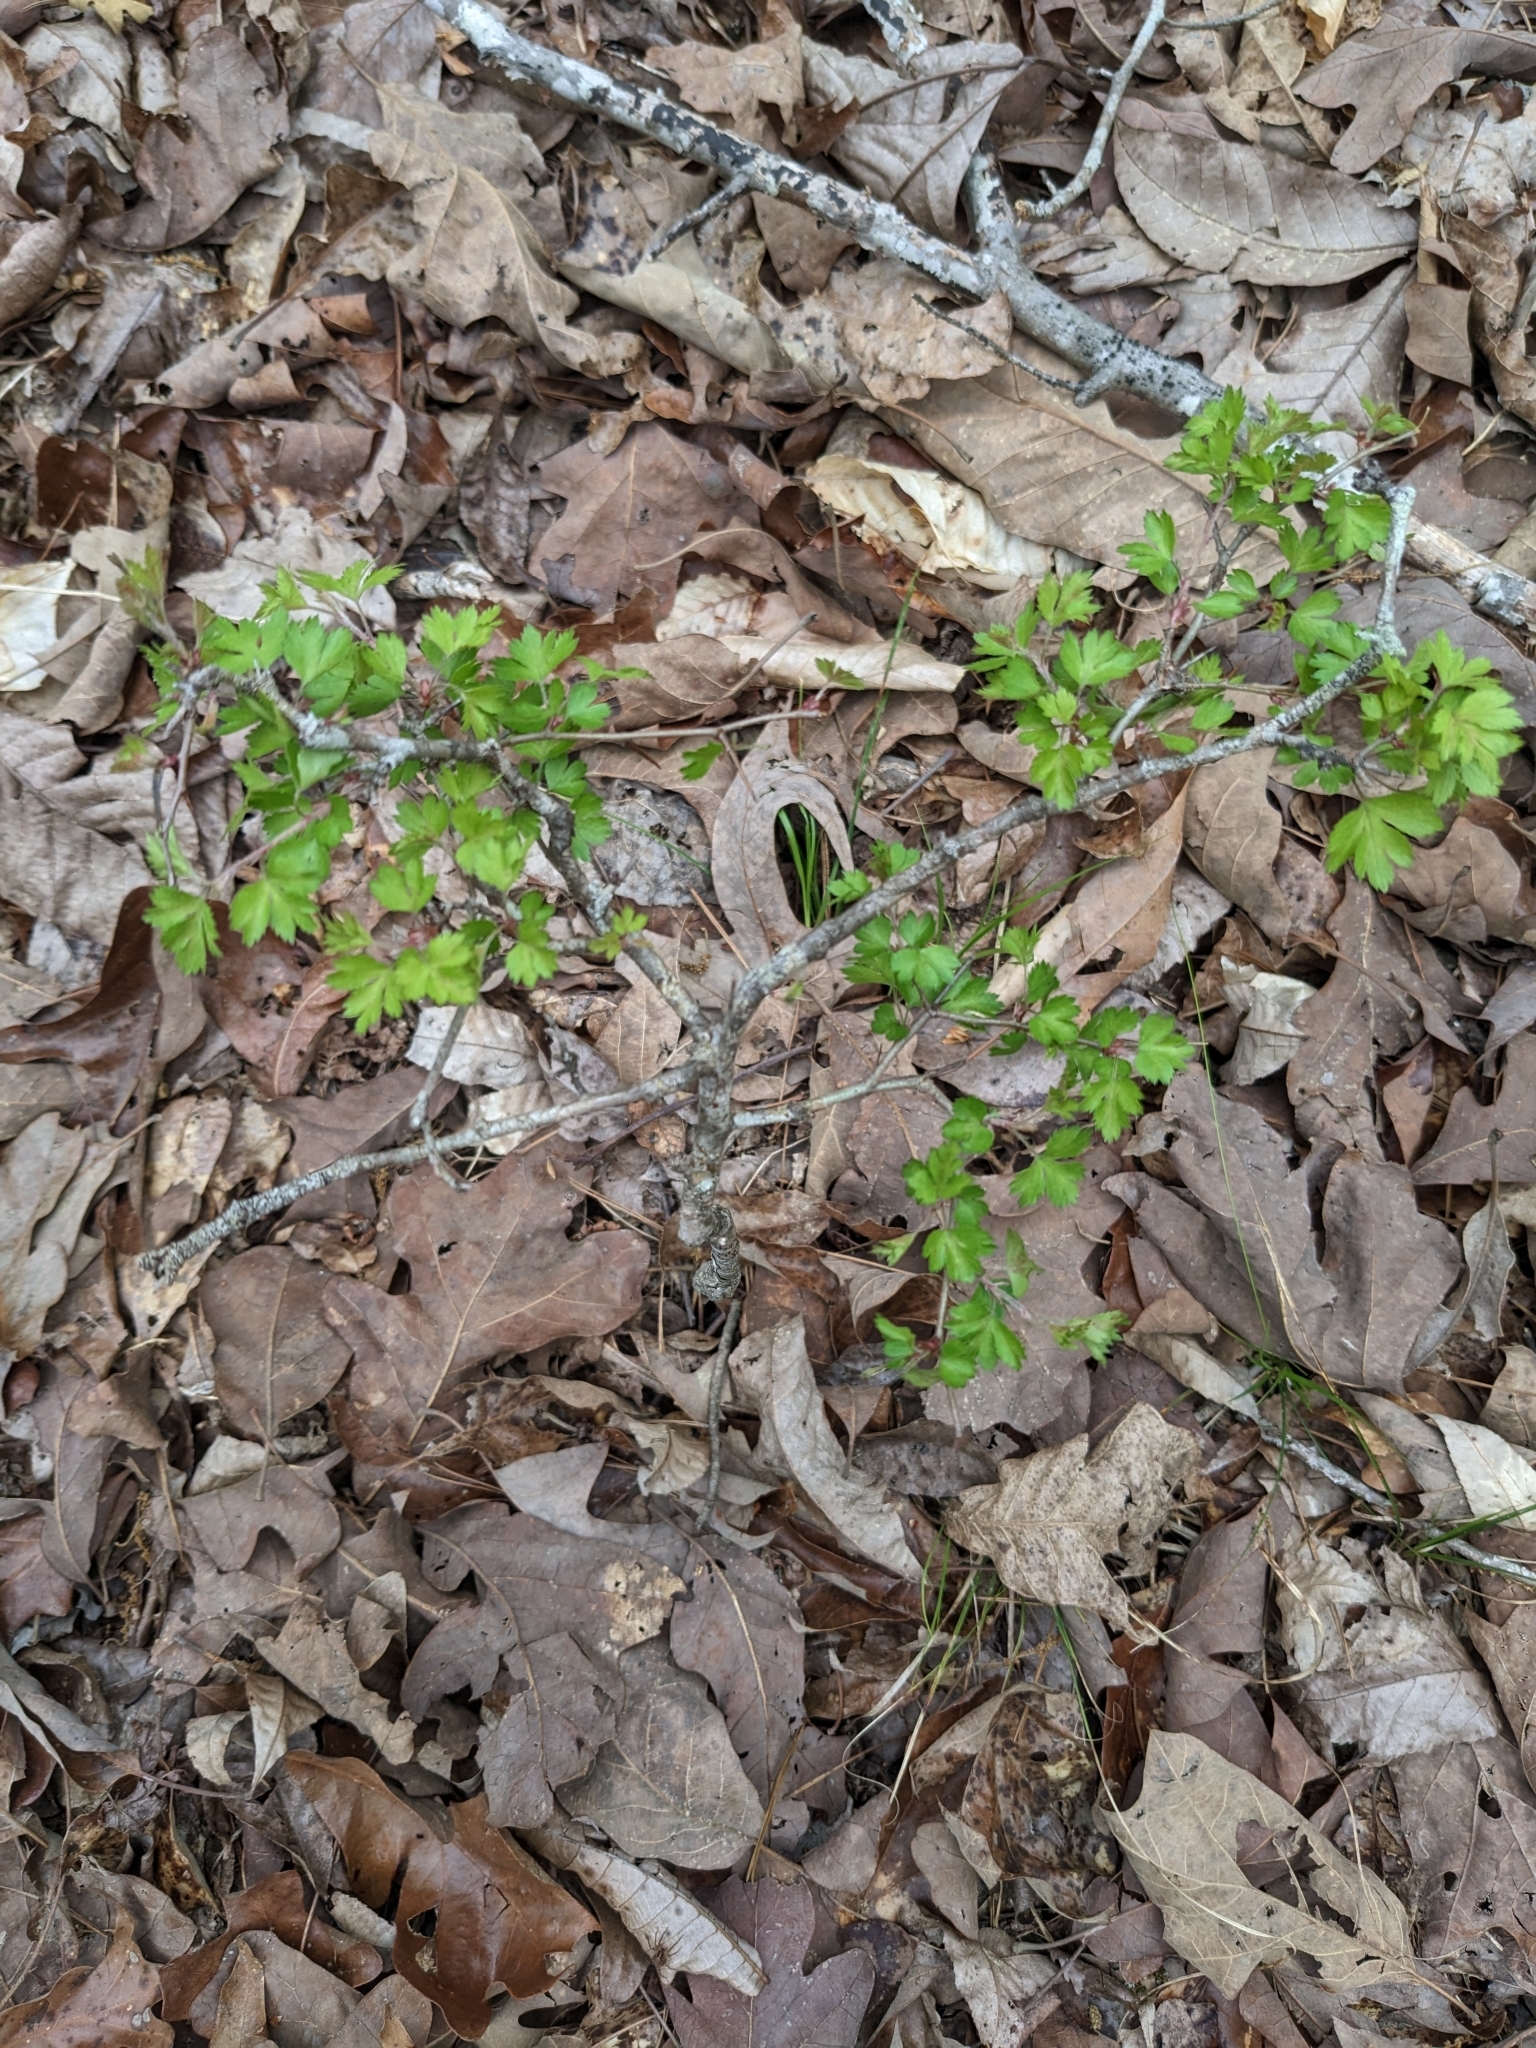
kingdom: Plantae
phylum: Tracheophyta
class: Magnoliopsida
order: Rosales
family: Rosaceae
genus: Crataegus
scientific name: Crataegus marshallii
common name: Parsley-hawthorn
